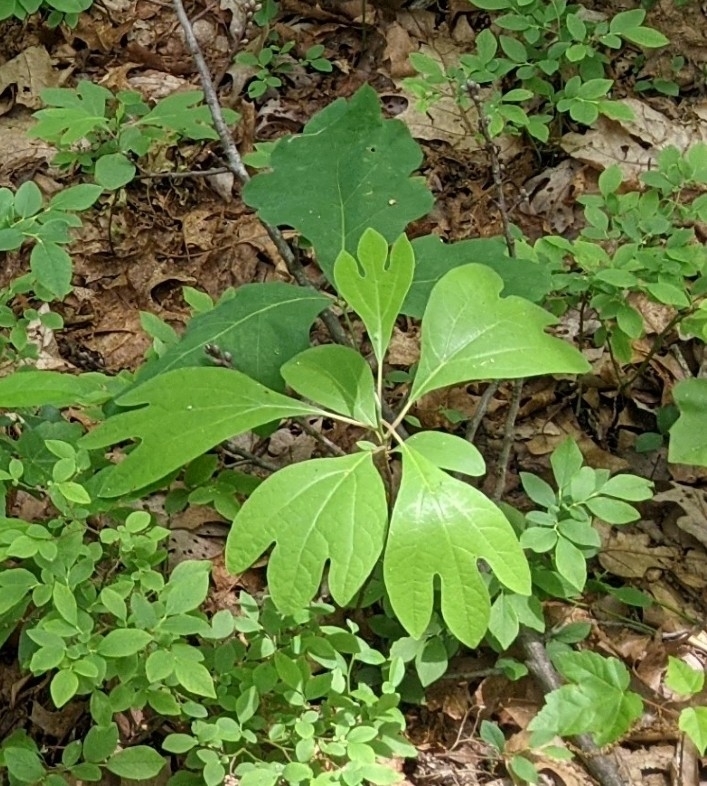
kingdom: Plantae
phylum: Tracheophyta
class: Magnoliopsida
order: Laurales
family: Lauraceae
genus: Sassafras
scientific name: Sassafras albidum
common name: Sassafras
